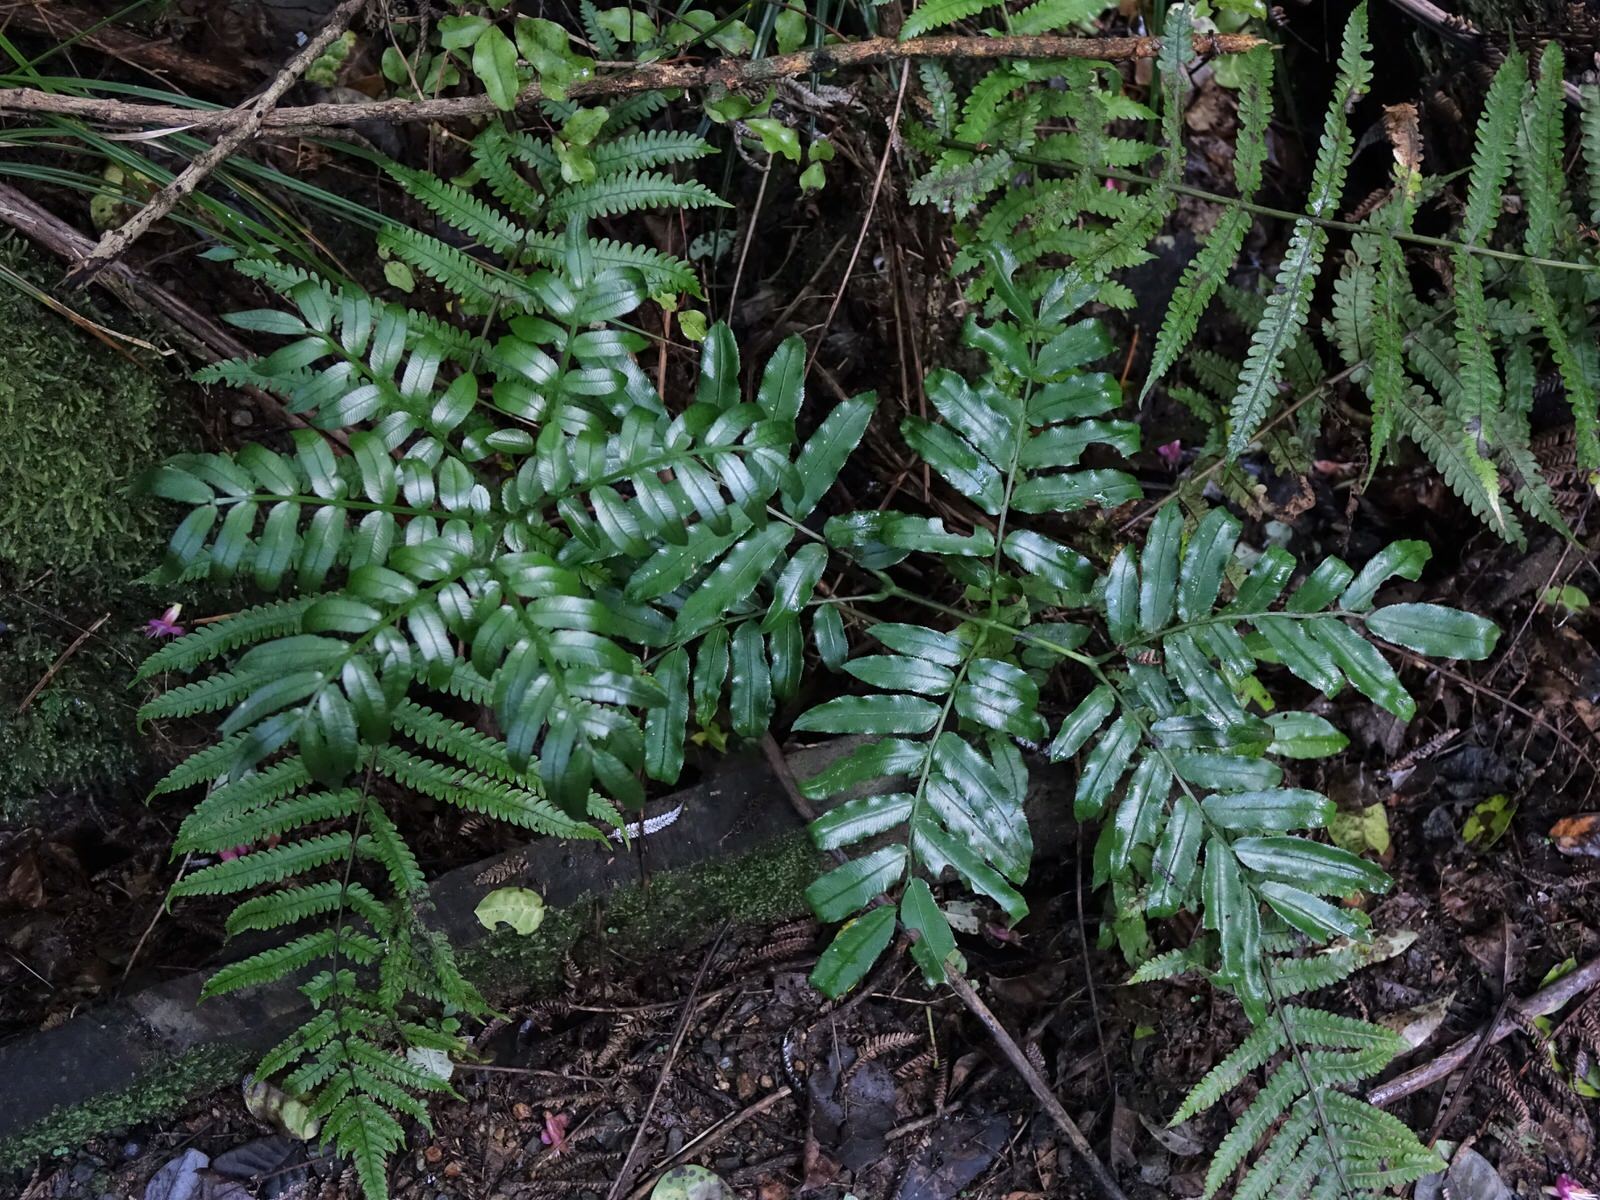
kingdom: Plantae
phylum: Tracheophyta
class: Polypodiopsida
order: Marattiales
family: Marattiaceae
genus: Ptisana
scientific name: Ptisana salicina
